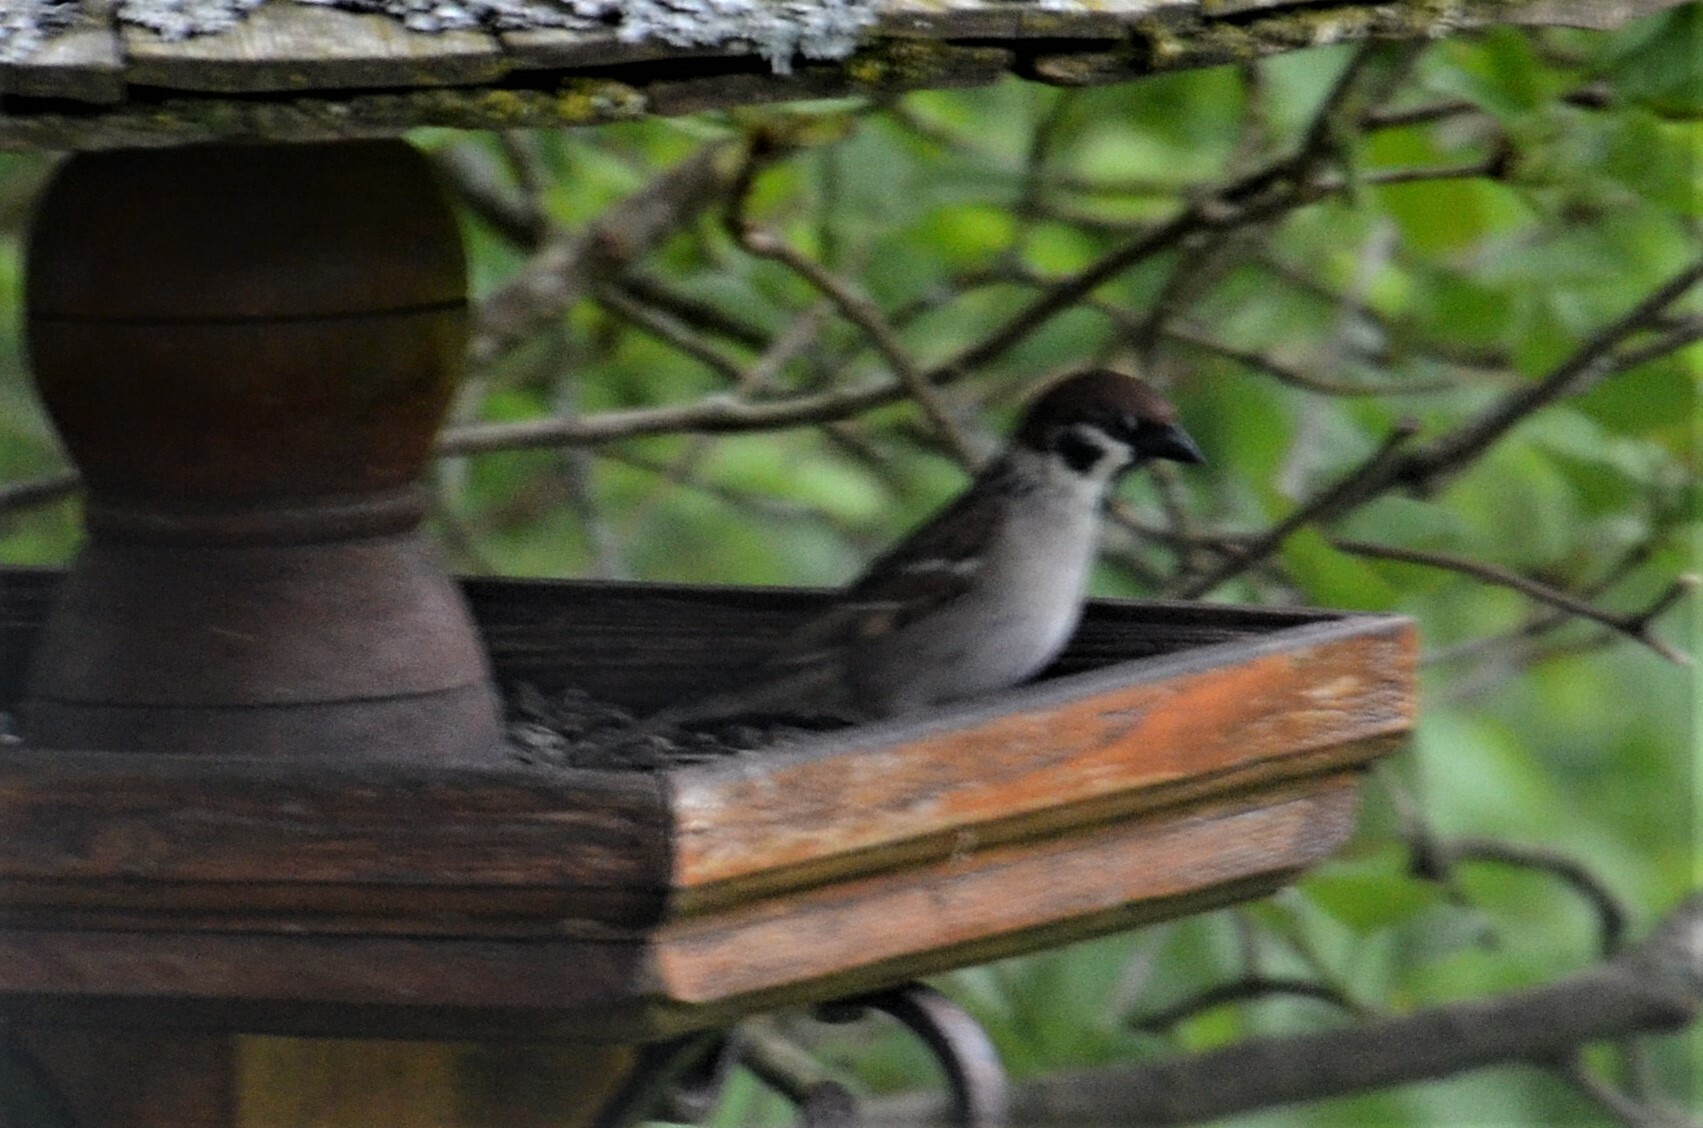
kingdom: Animalia
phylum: Chordata
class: Aves
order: Passeriformes
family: Passeridae
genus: Passer
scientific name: Passer montanus
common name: Eurasian tree sparrow
